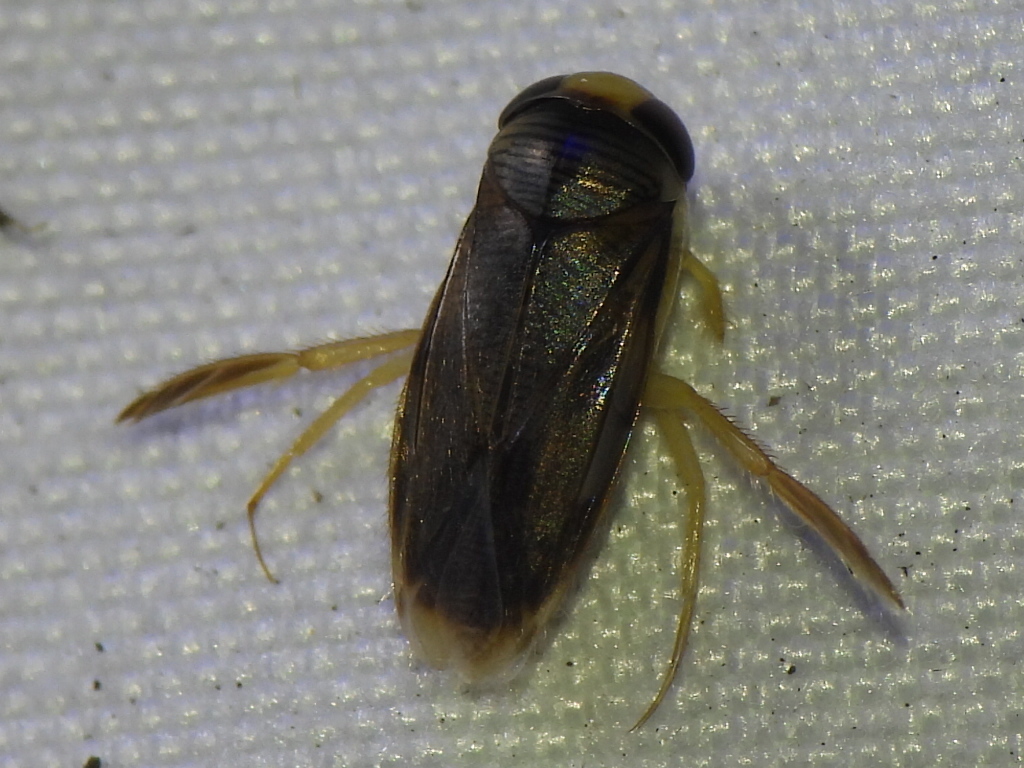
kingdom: Animalia
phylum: Arthropoda
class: Insecta
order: Hemiptera
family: Corixidae
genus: Morphocorixa
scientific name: Morphocorixa compacta
